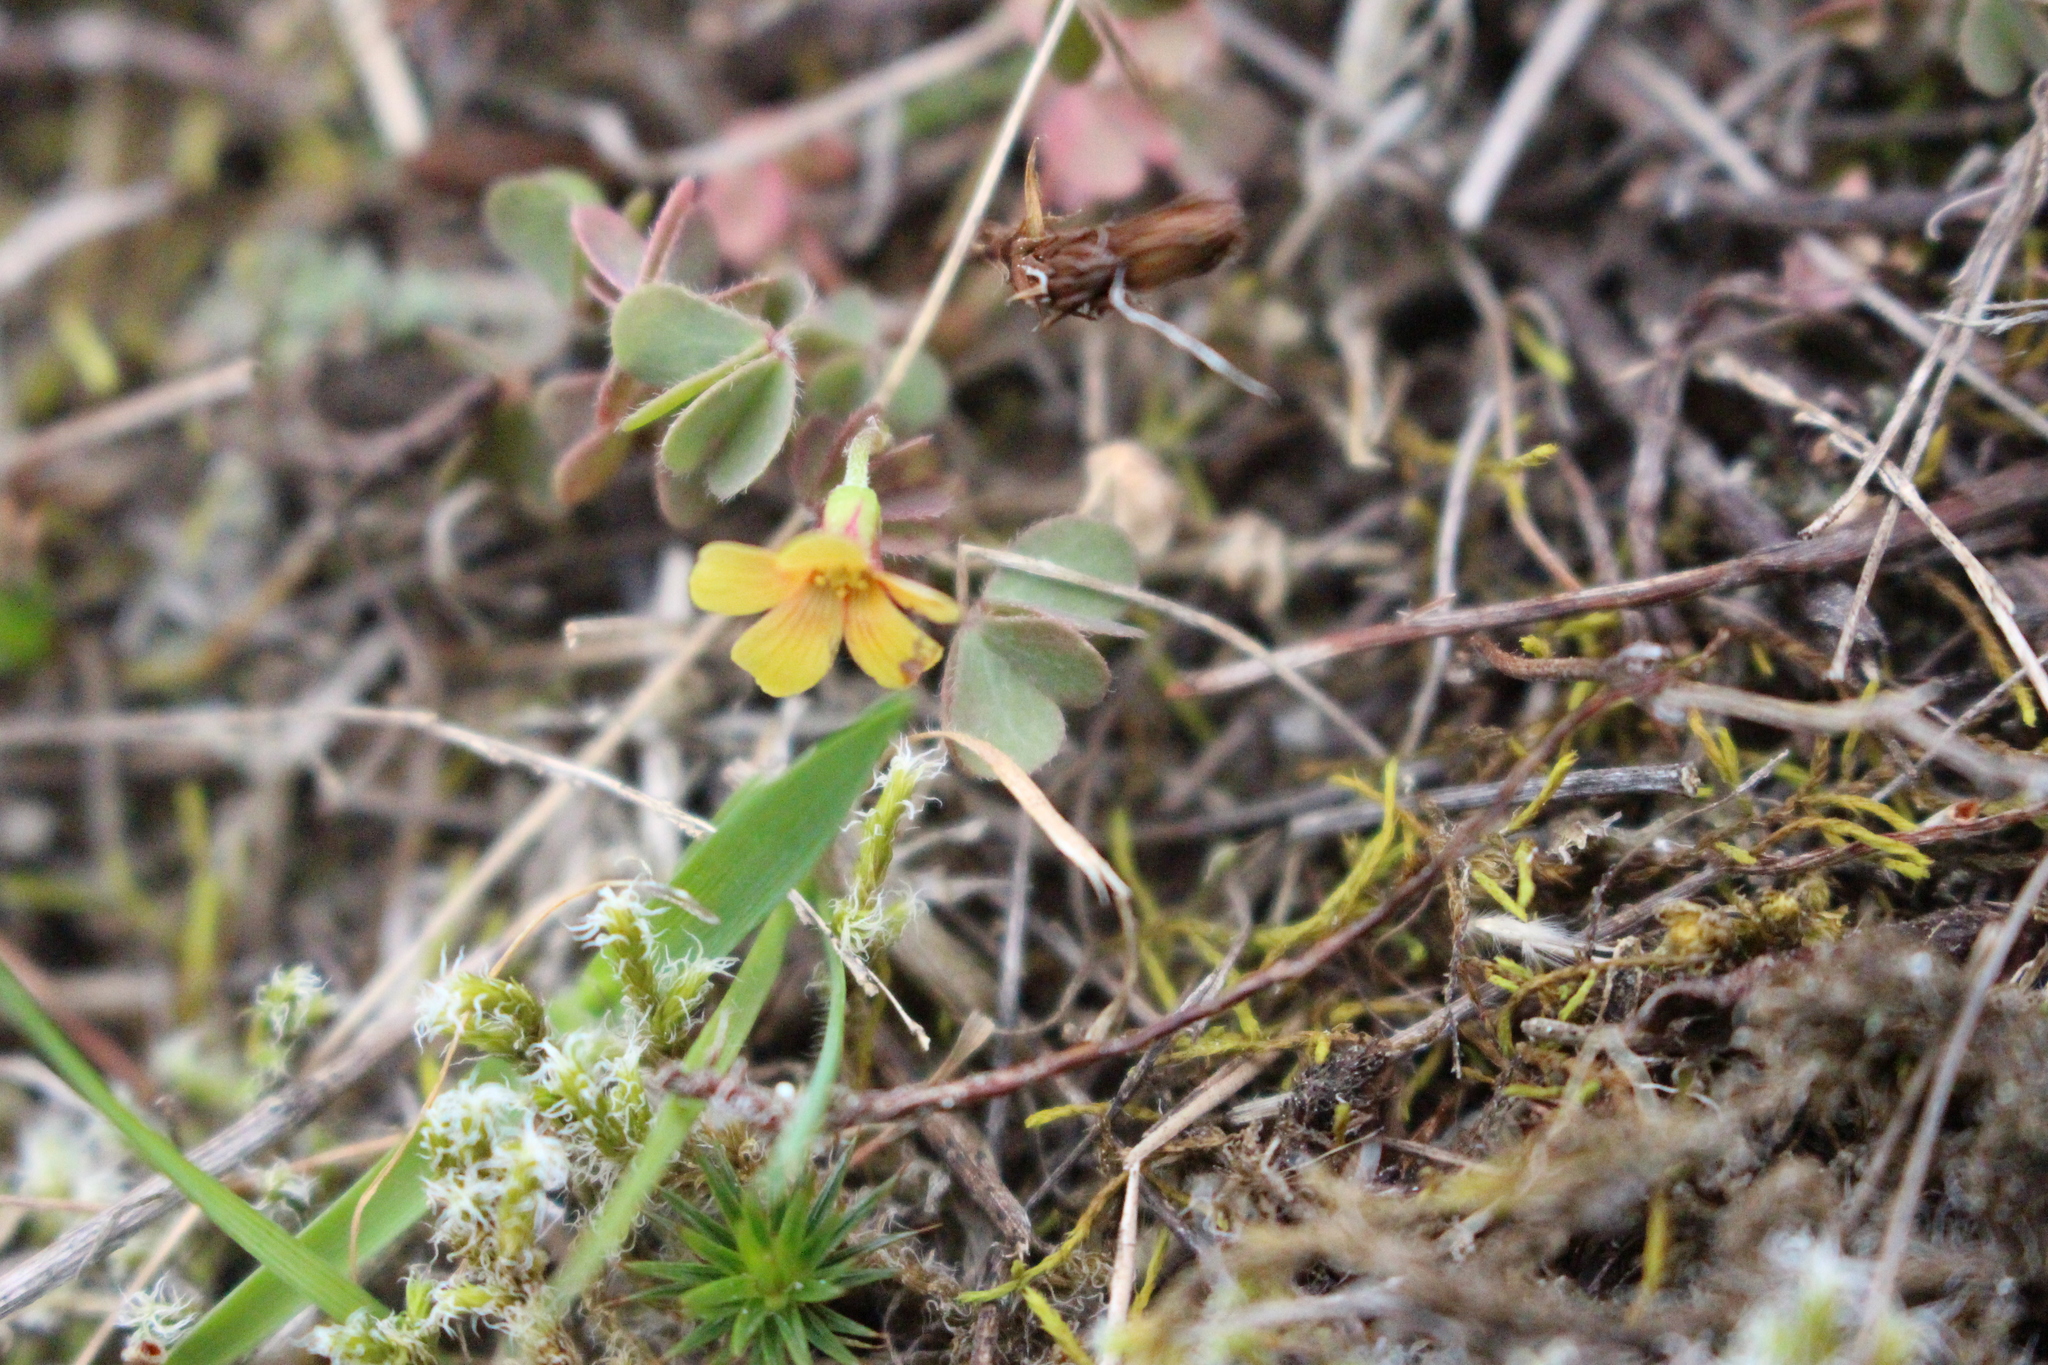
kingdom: Plantae
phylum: Tracheophyta
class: Magnoliopsida
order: Oxalidales
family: Oxalidaceae
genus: Oxalis
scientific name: Oxalis exilis
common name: Least yellow-sorrel
